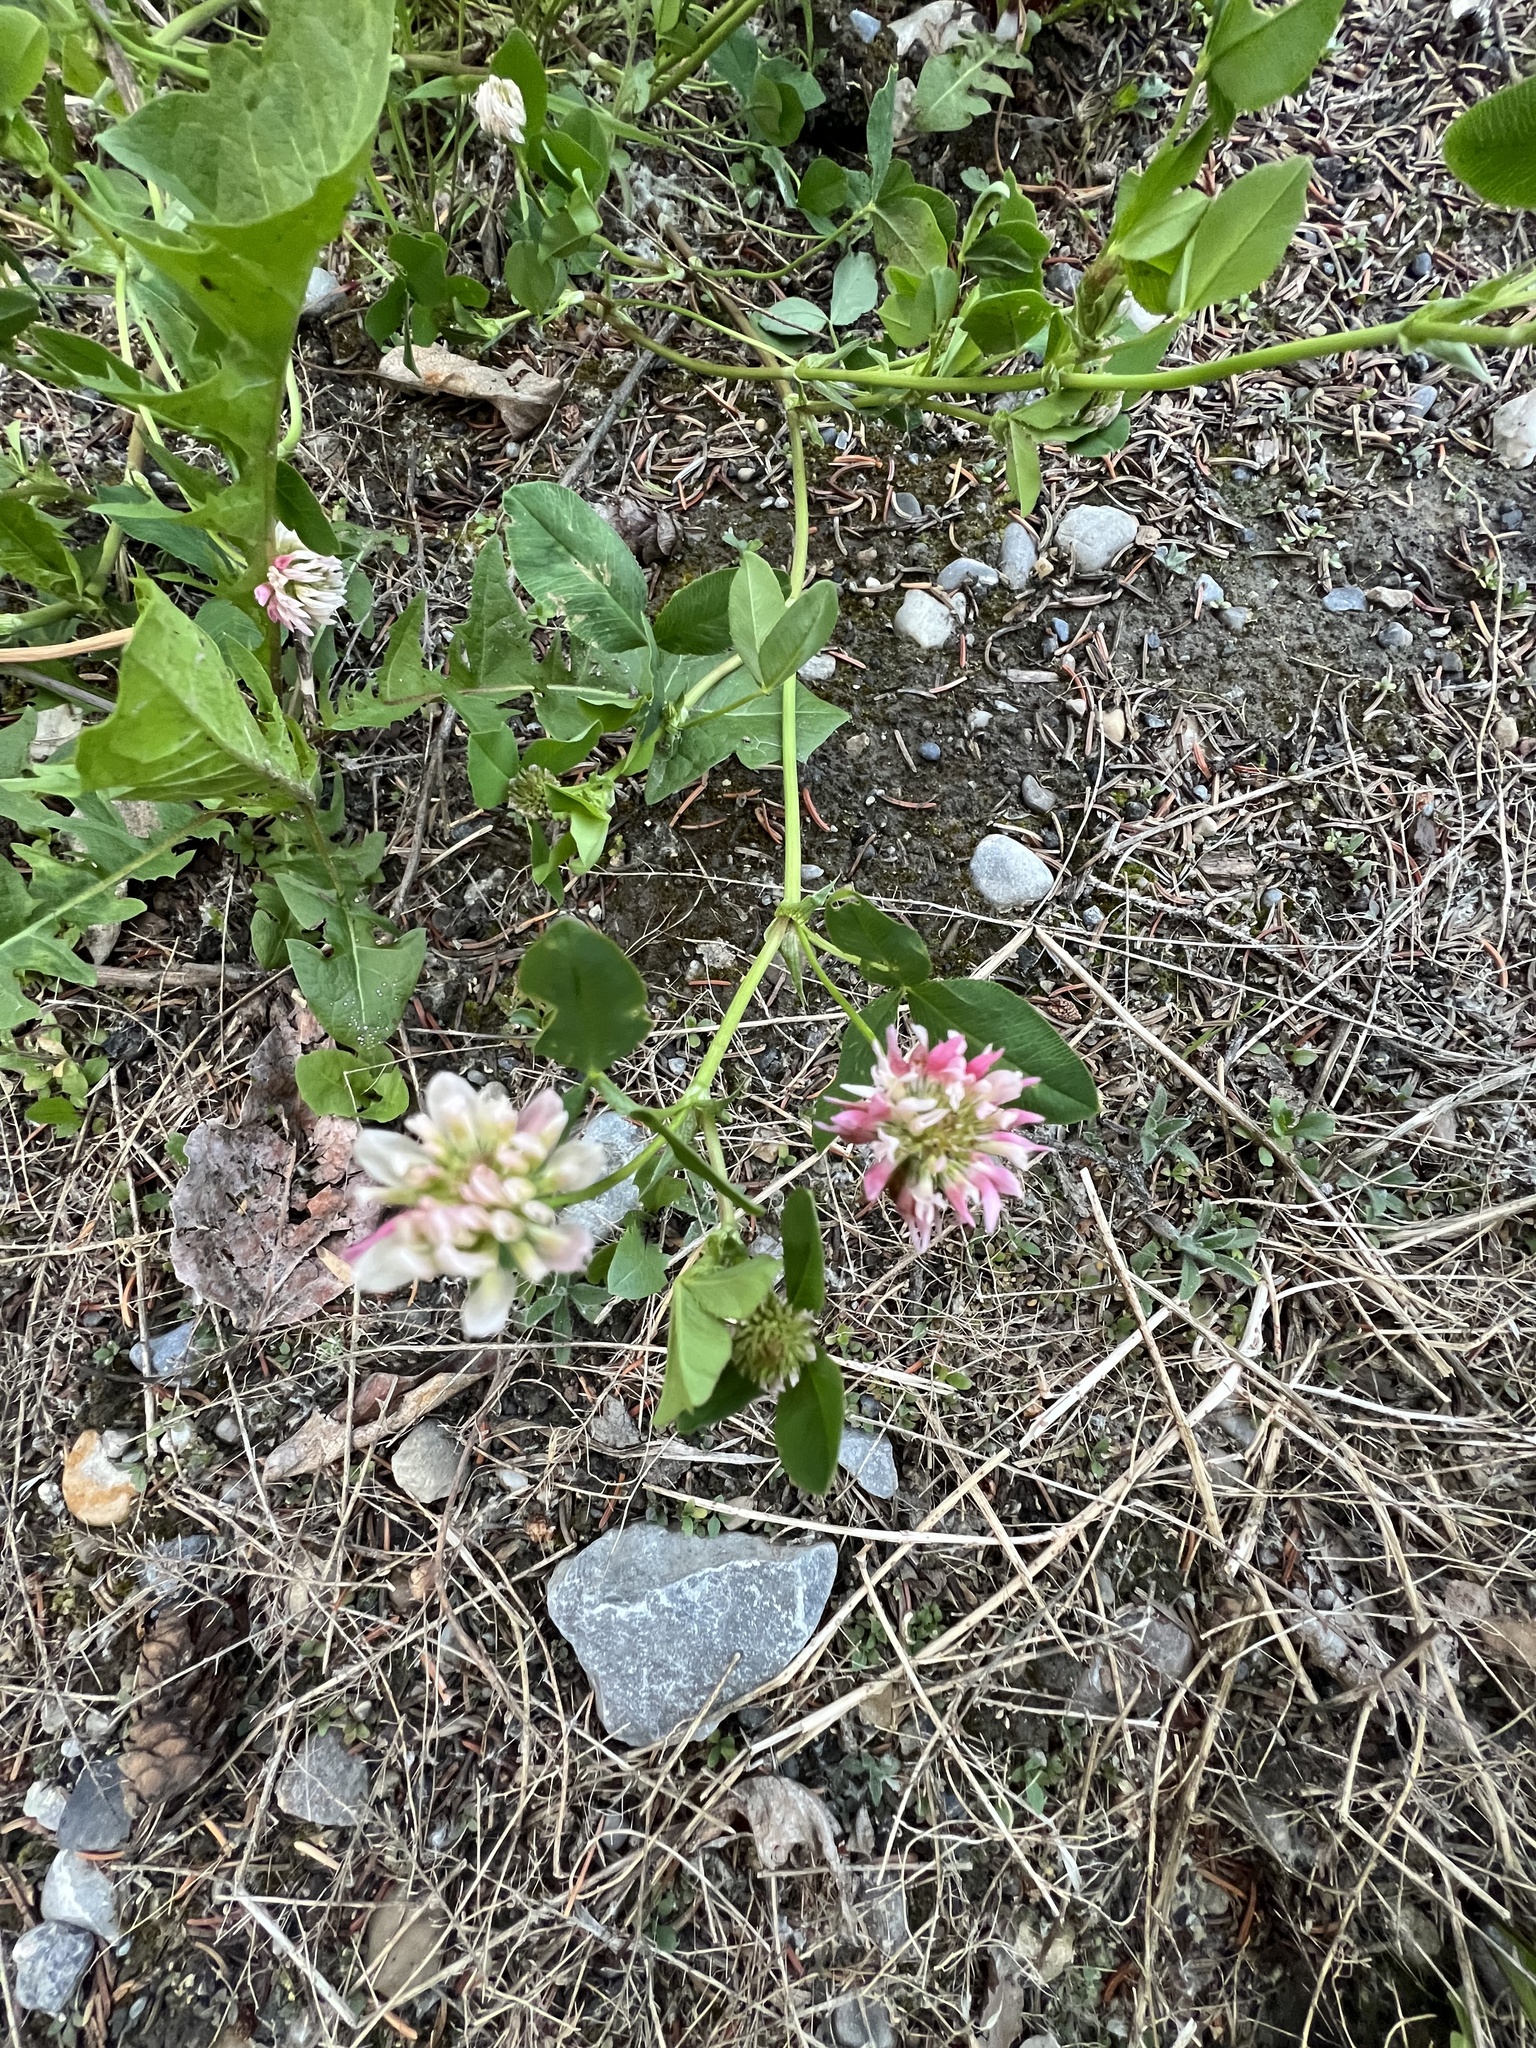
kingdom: Plantae
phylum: Tracheophyta
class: Magnoliopsida
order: Fabales
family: Fabaceae
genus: Trifolium
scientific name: Trifolium hybridum
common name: Alsike clover
